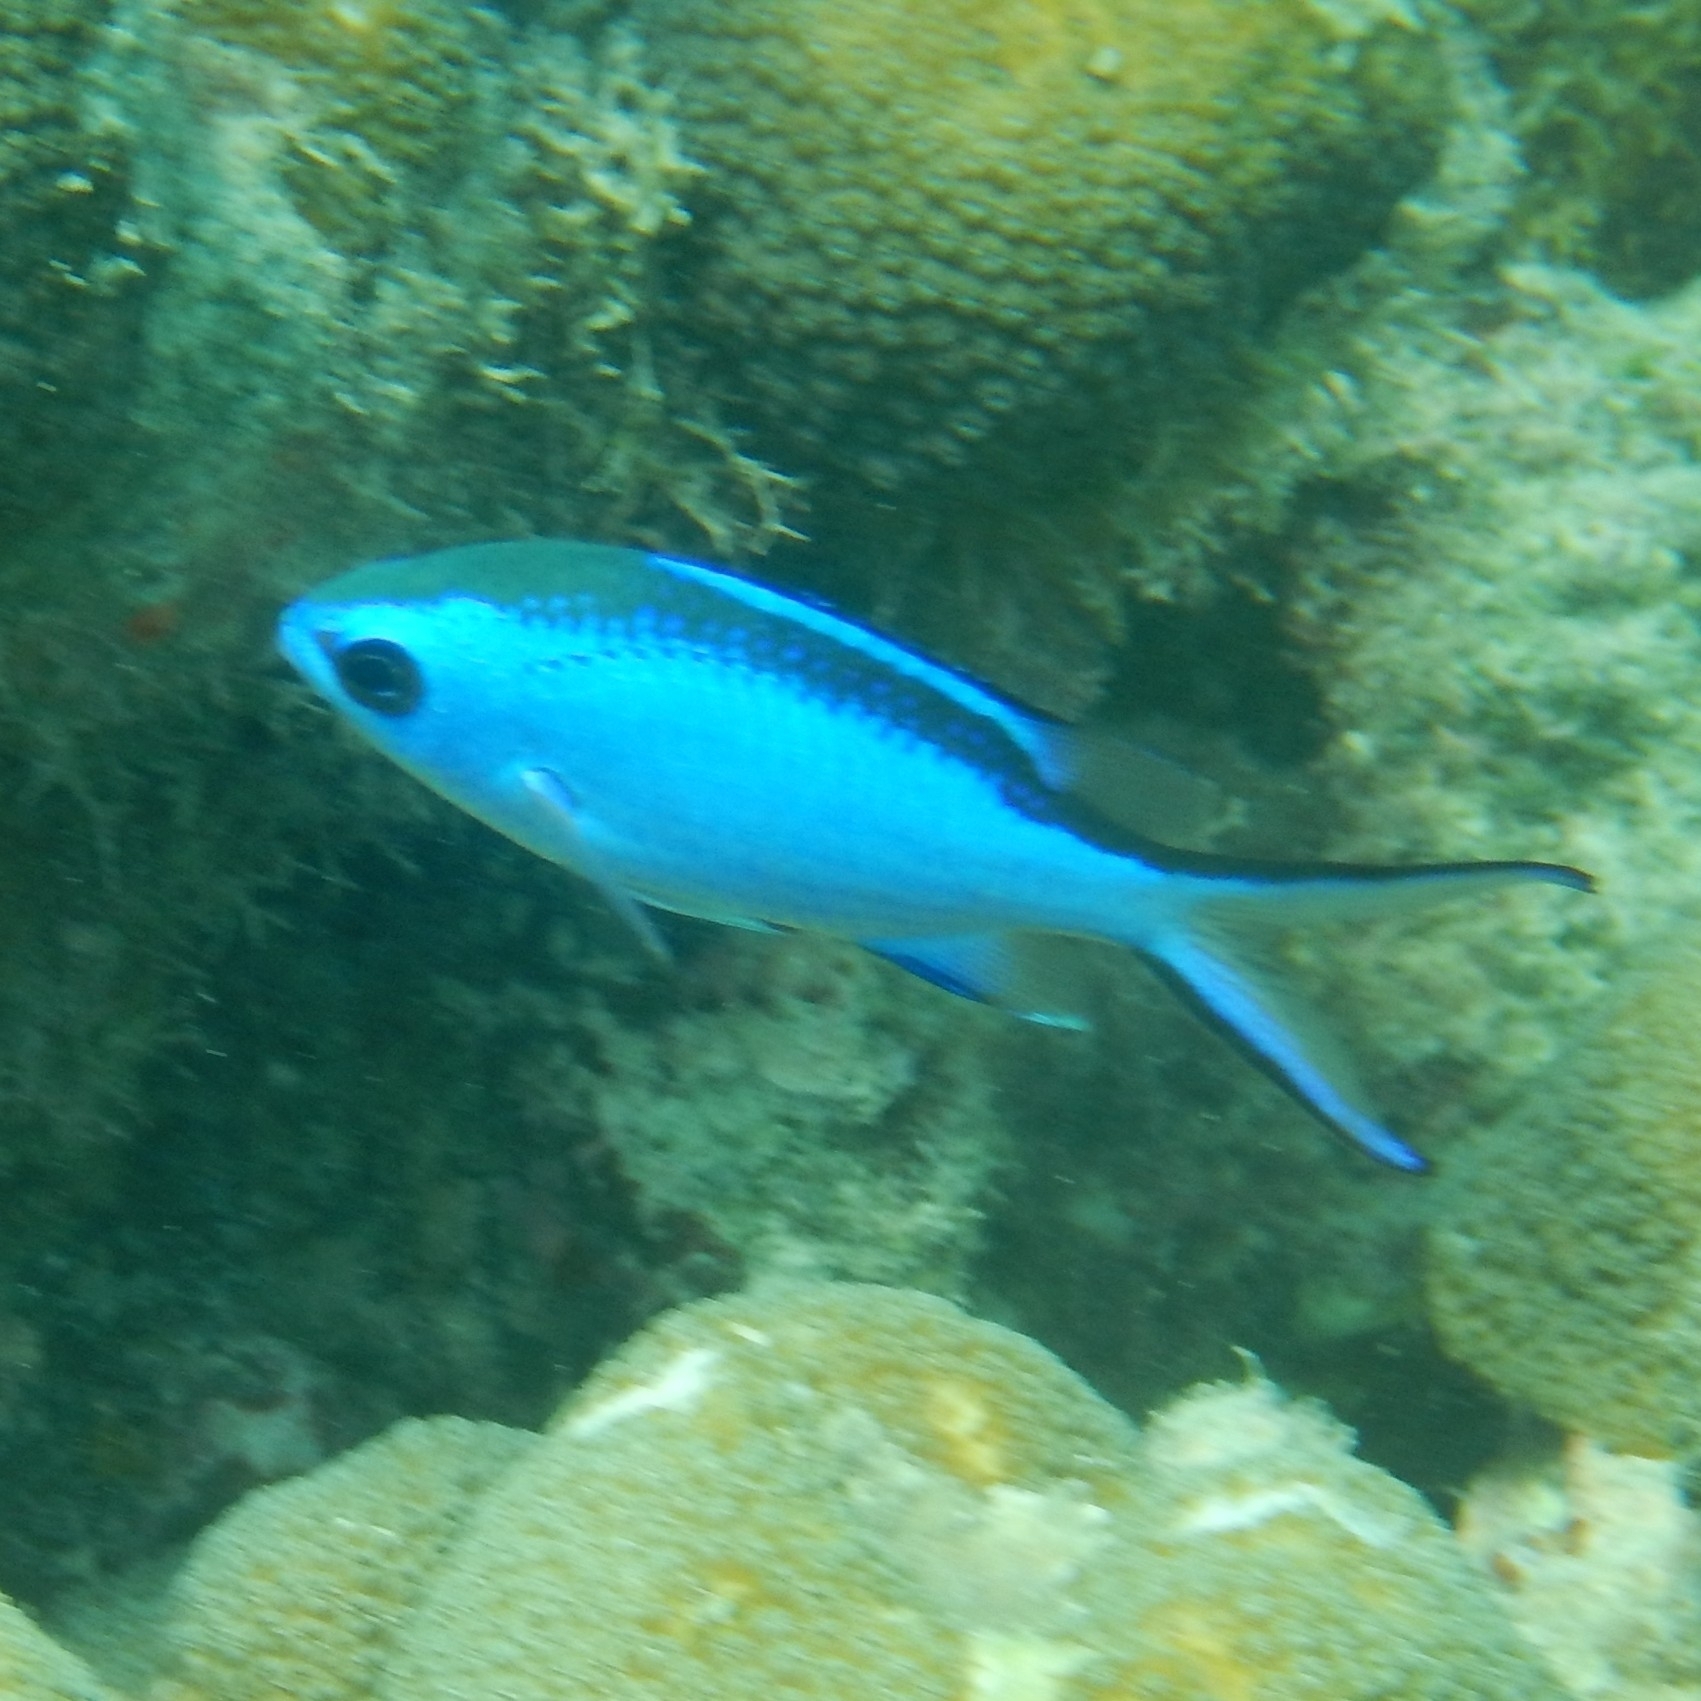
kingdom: Animalia
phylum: Chordata
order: Perciformes
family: Pomacentridae
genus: Chromis
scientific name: Chromis cyanea
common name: Blue chromis
